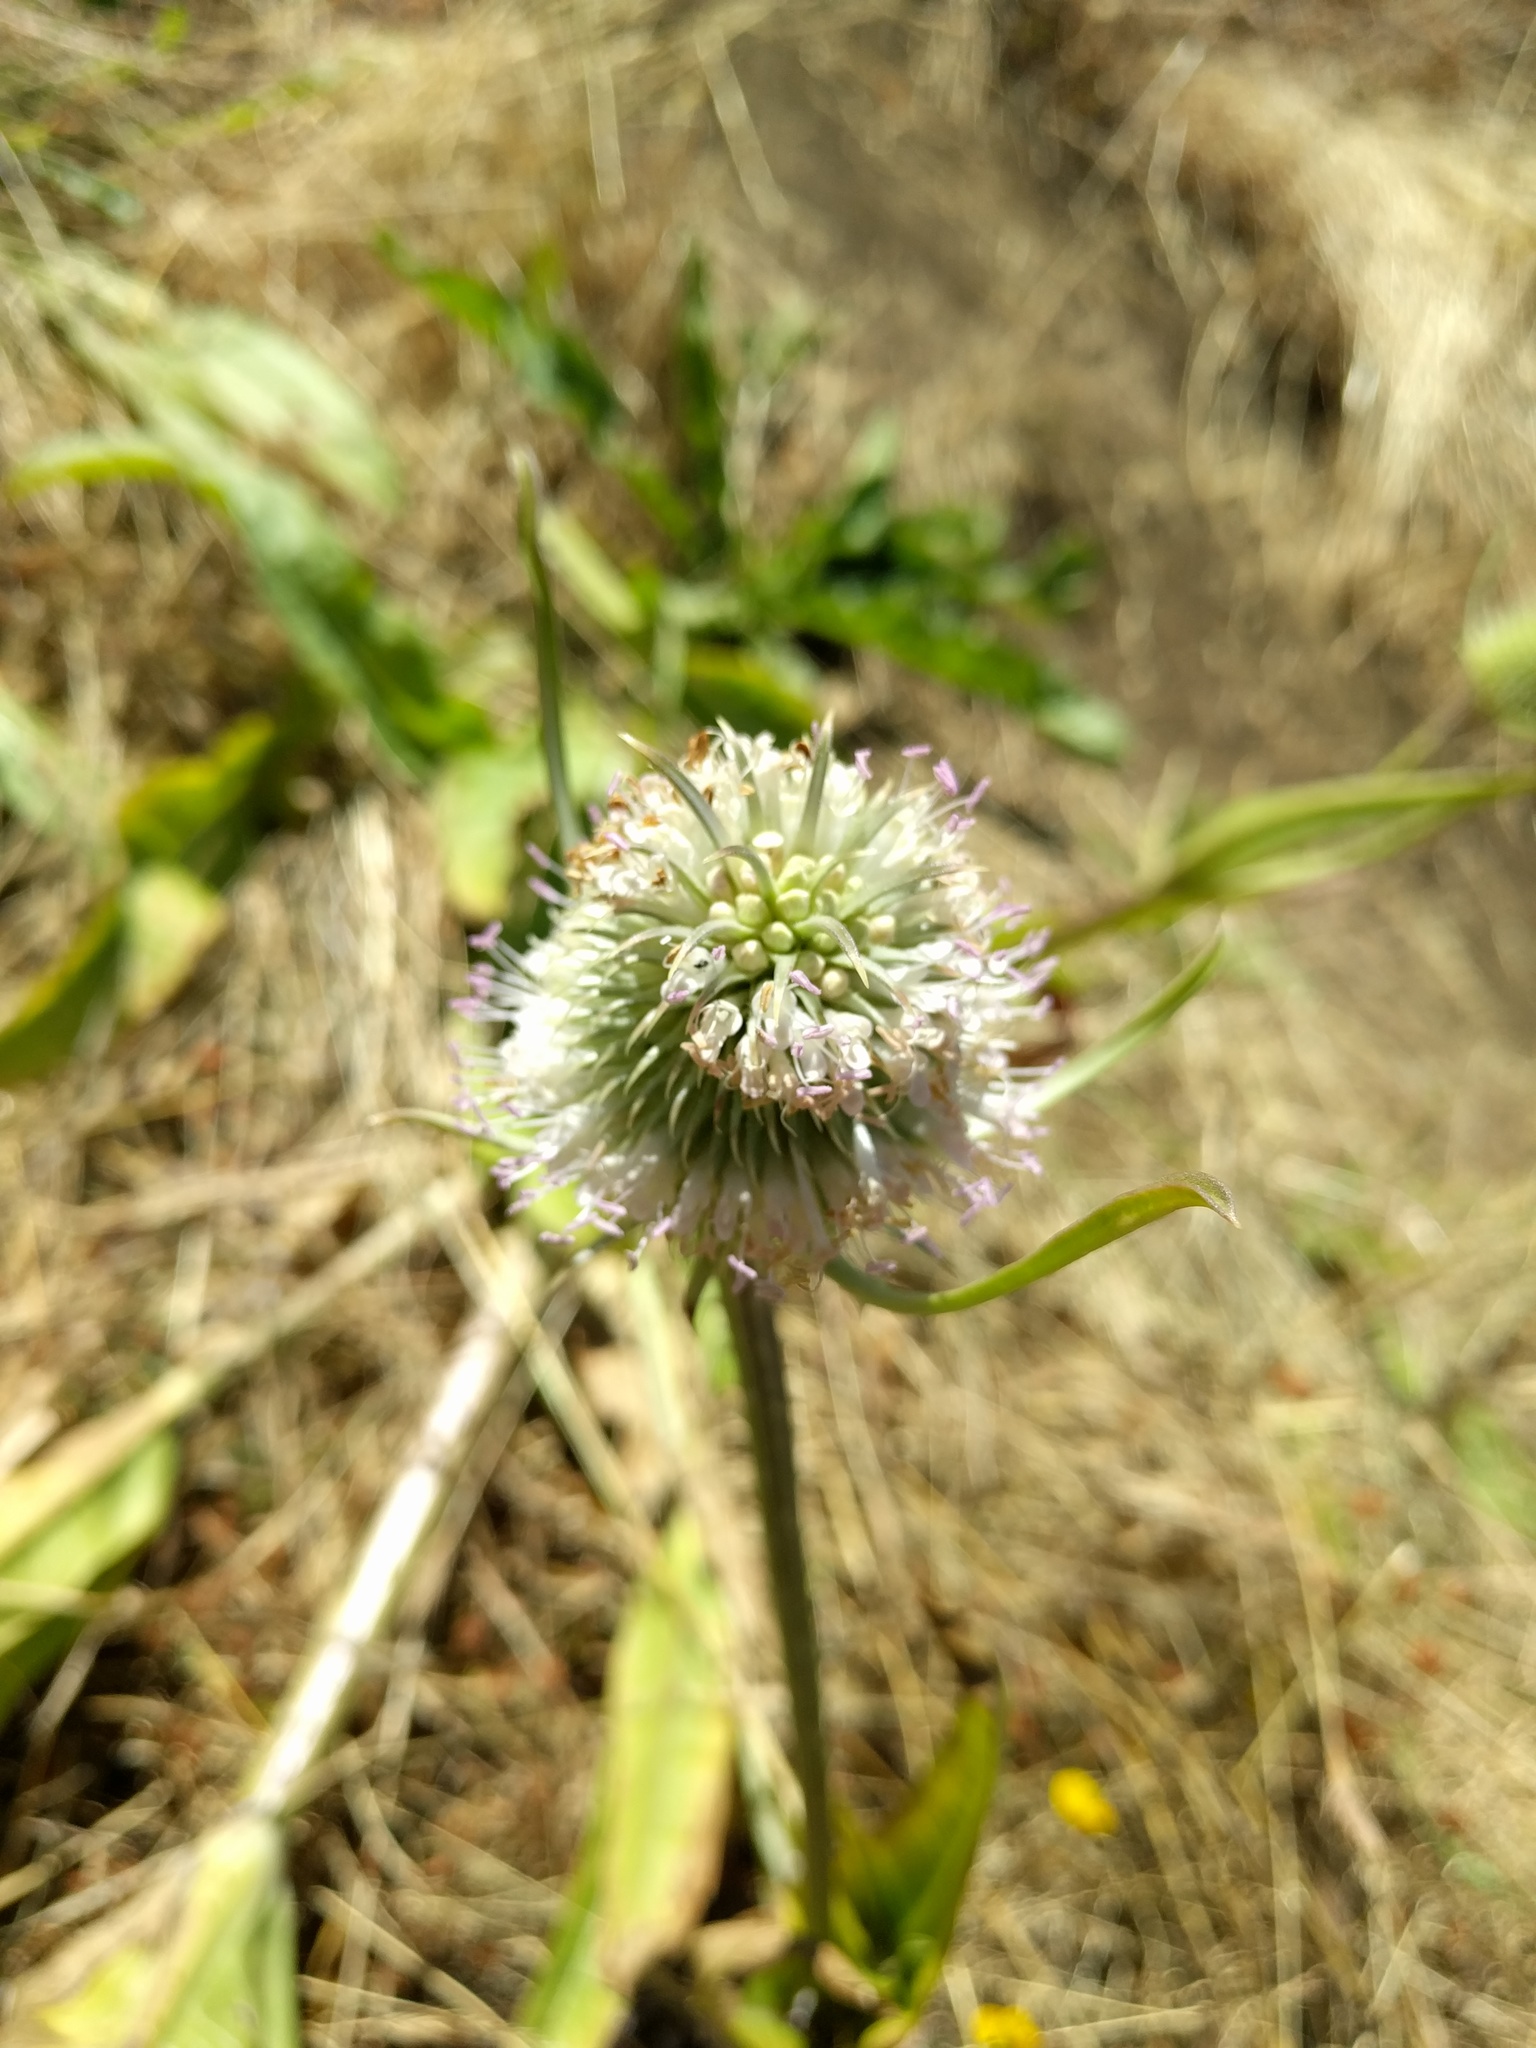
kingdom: Plantae
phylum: Tracheophyta
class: Magnoliopsida
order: Dipsacales
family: Caprifoliaceae
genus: Dipsacus
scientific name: Dipsacus sativus
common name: Fuller's teasel
